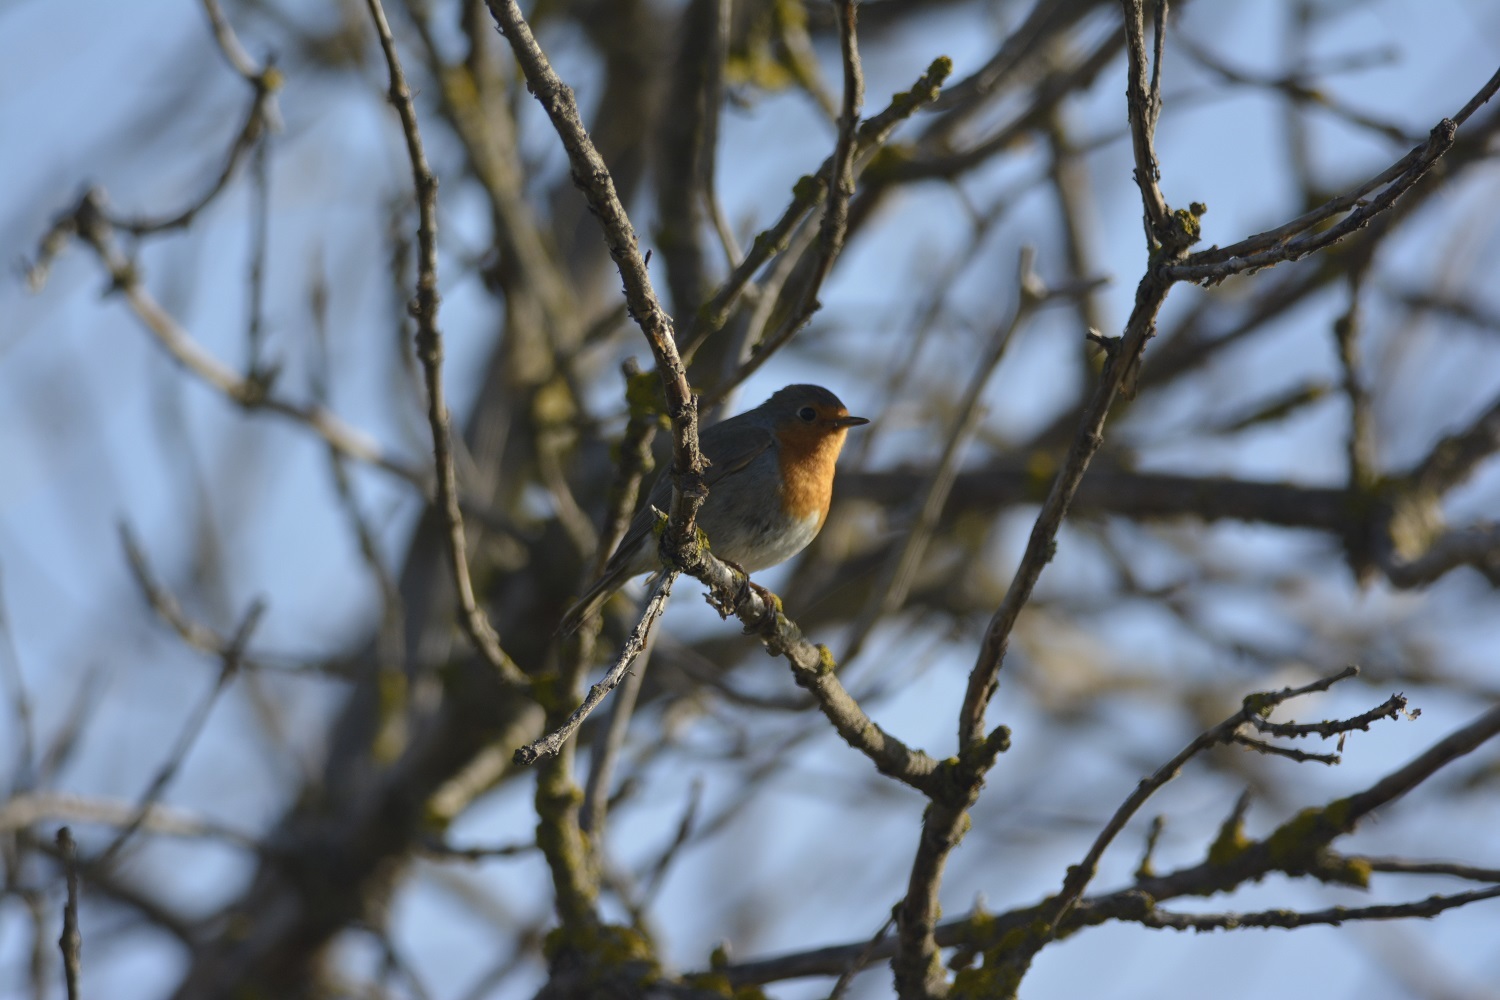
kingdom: Animalia
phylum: Chordata
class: Aves
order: Passeriformes
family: Muscicapidae
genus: Erithacus
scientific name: Erithacus rubecula
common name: European robin
